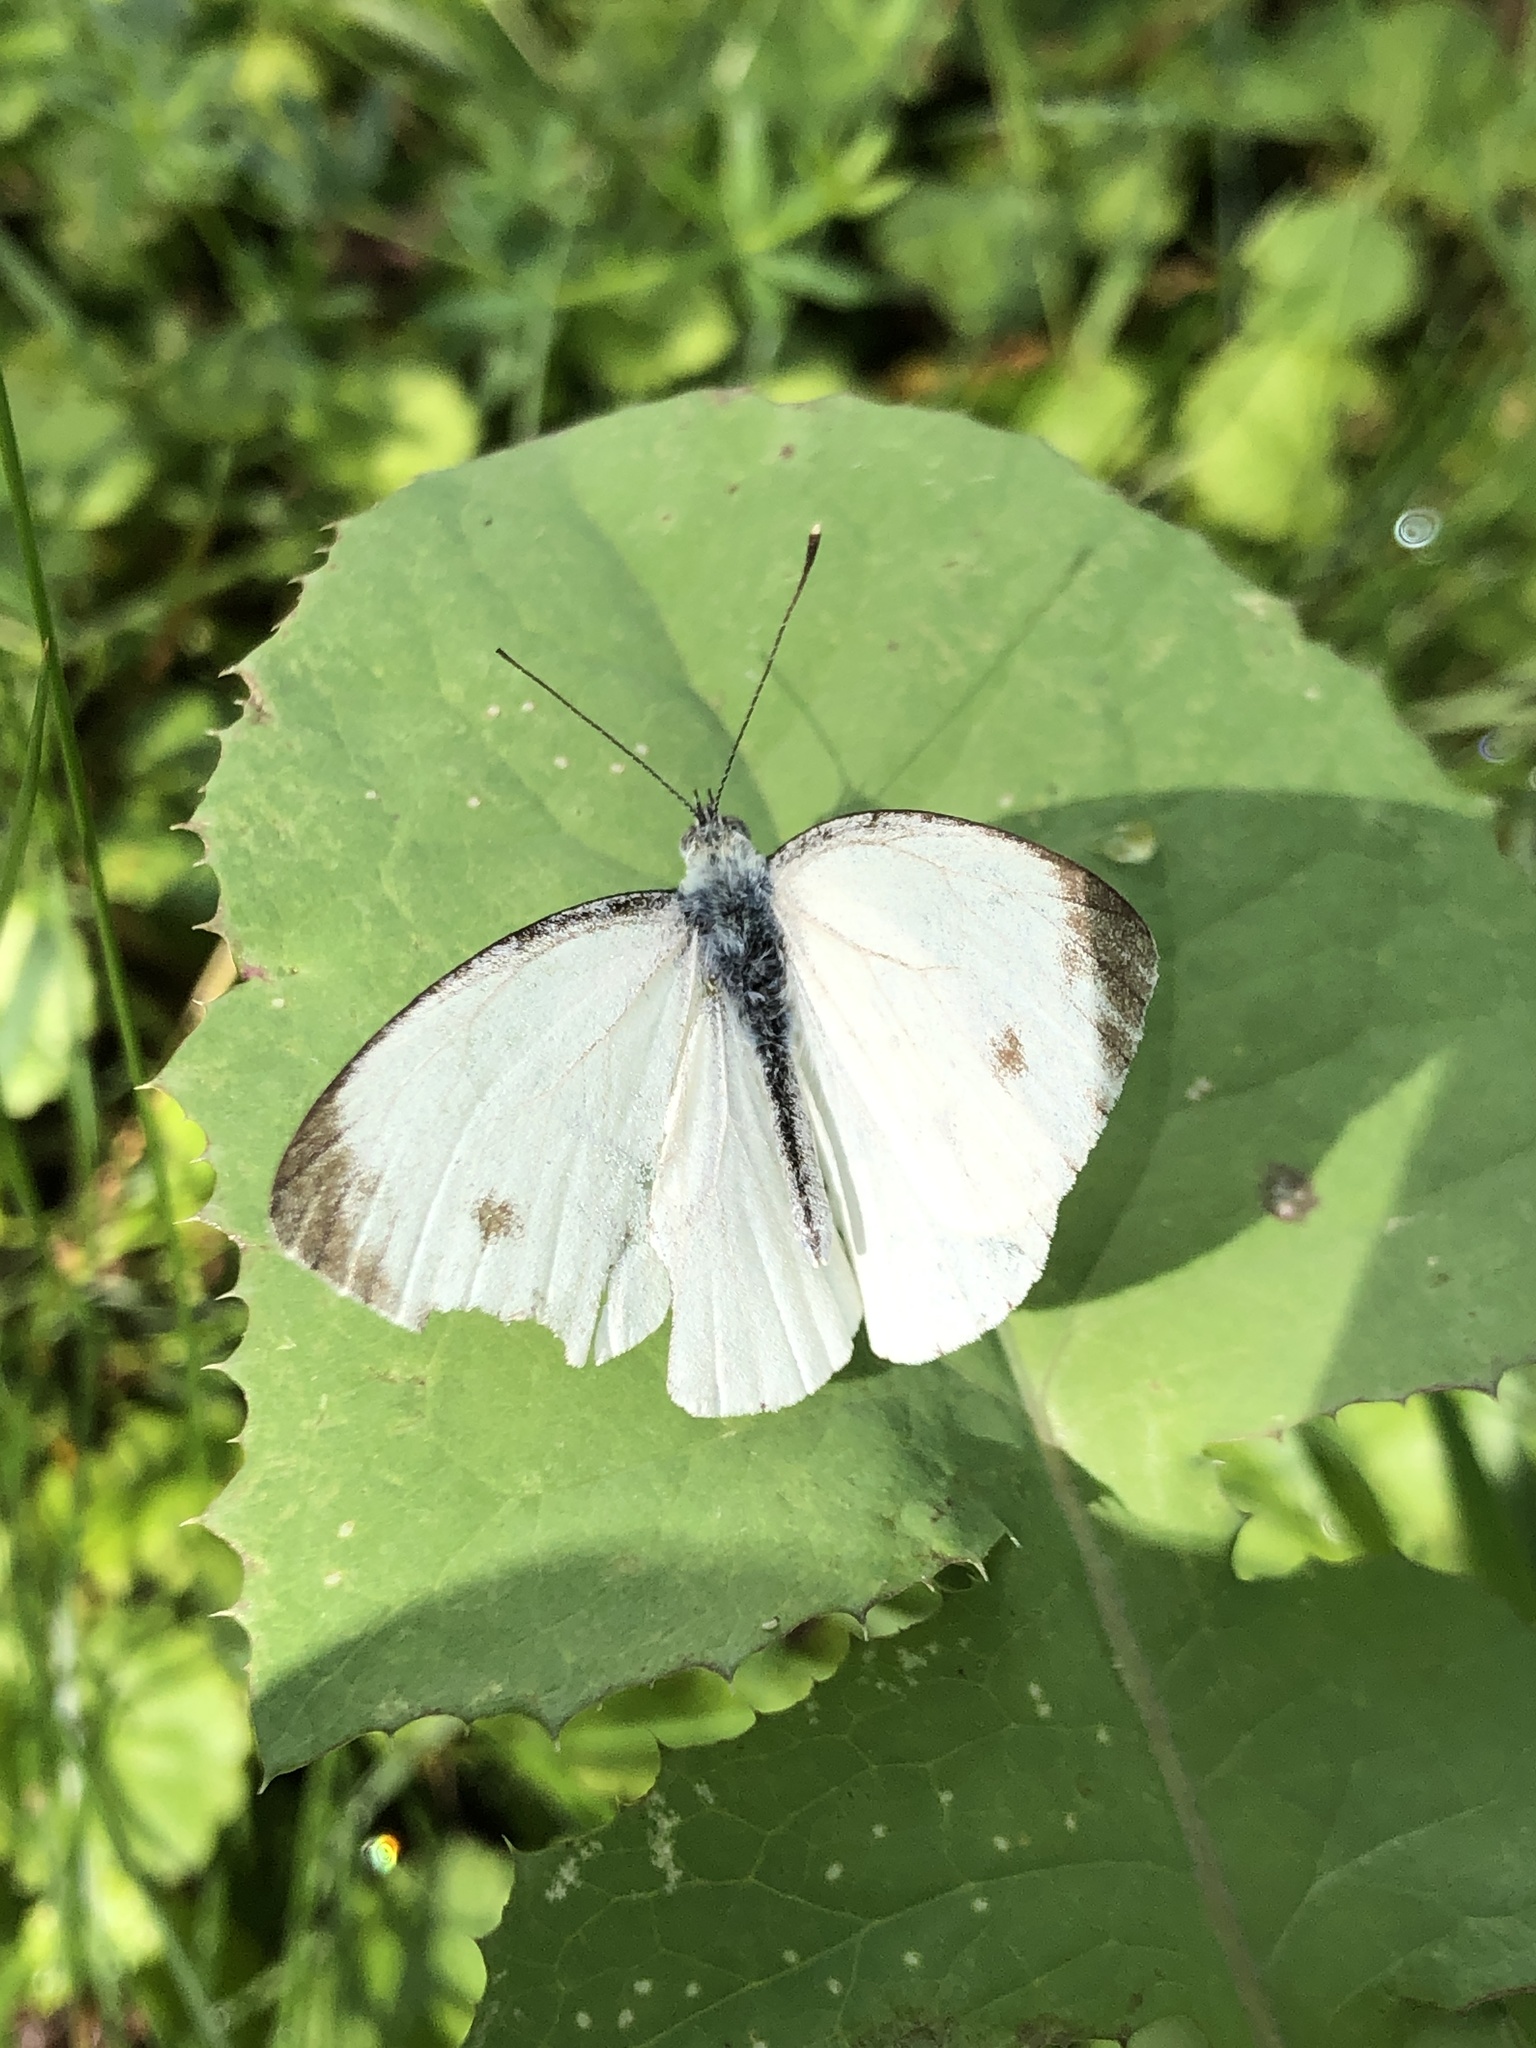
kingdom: Animalia
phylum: Arthropoda
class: Insecta
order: Lepidoptera
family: Pieridae
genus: Pieris
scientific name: Pieris napi
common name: Green-veined white
